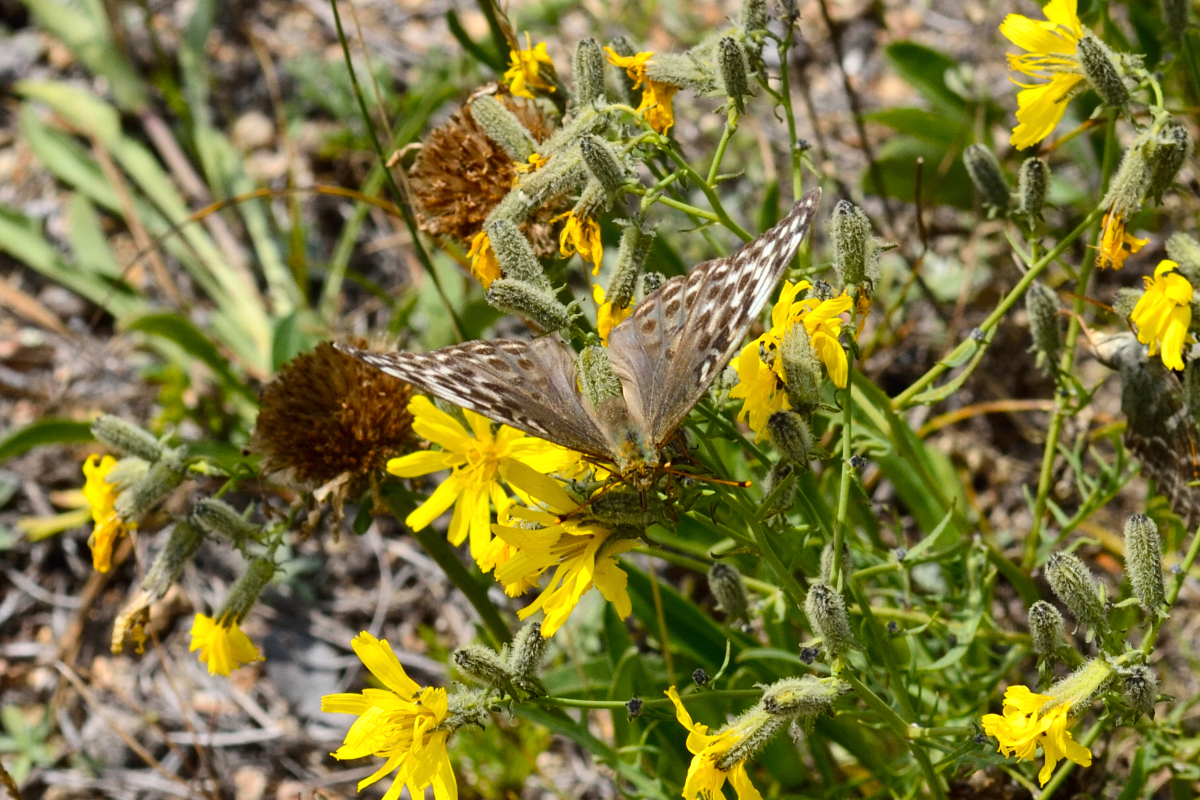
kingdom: Animalia
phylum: Arthropoda
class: Insecta
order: Lepidoptera
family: Nymphalidae
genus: Argynnis
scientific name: Argynnis paphia
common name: Silver-washed fritillary
